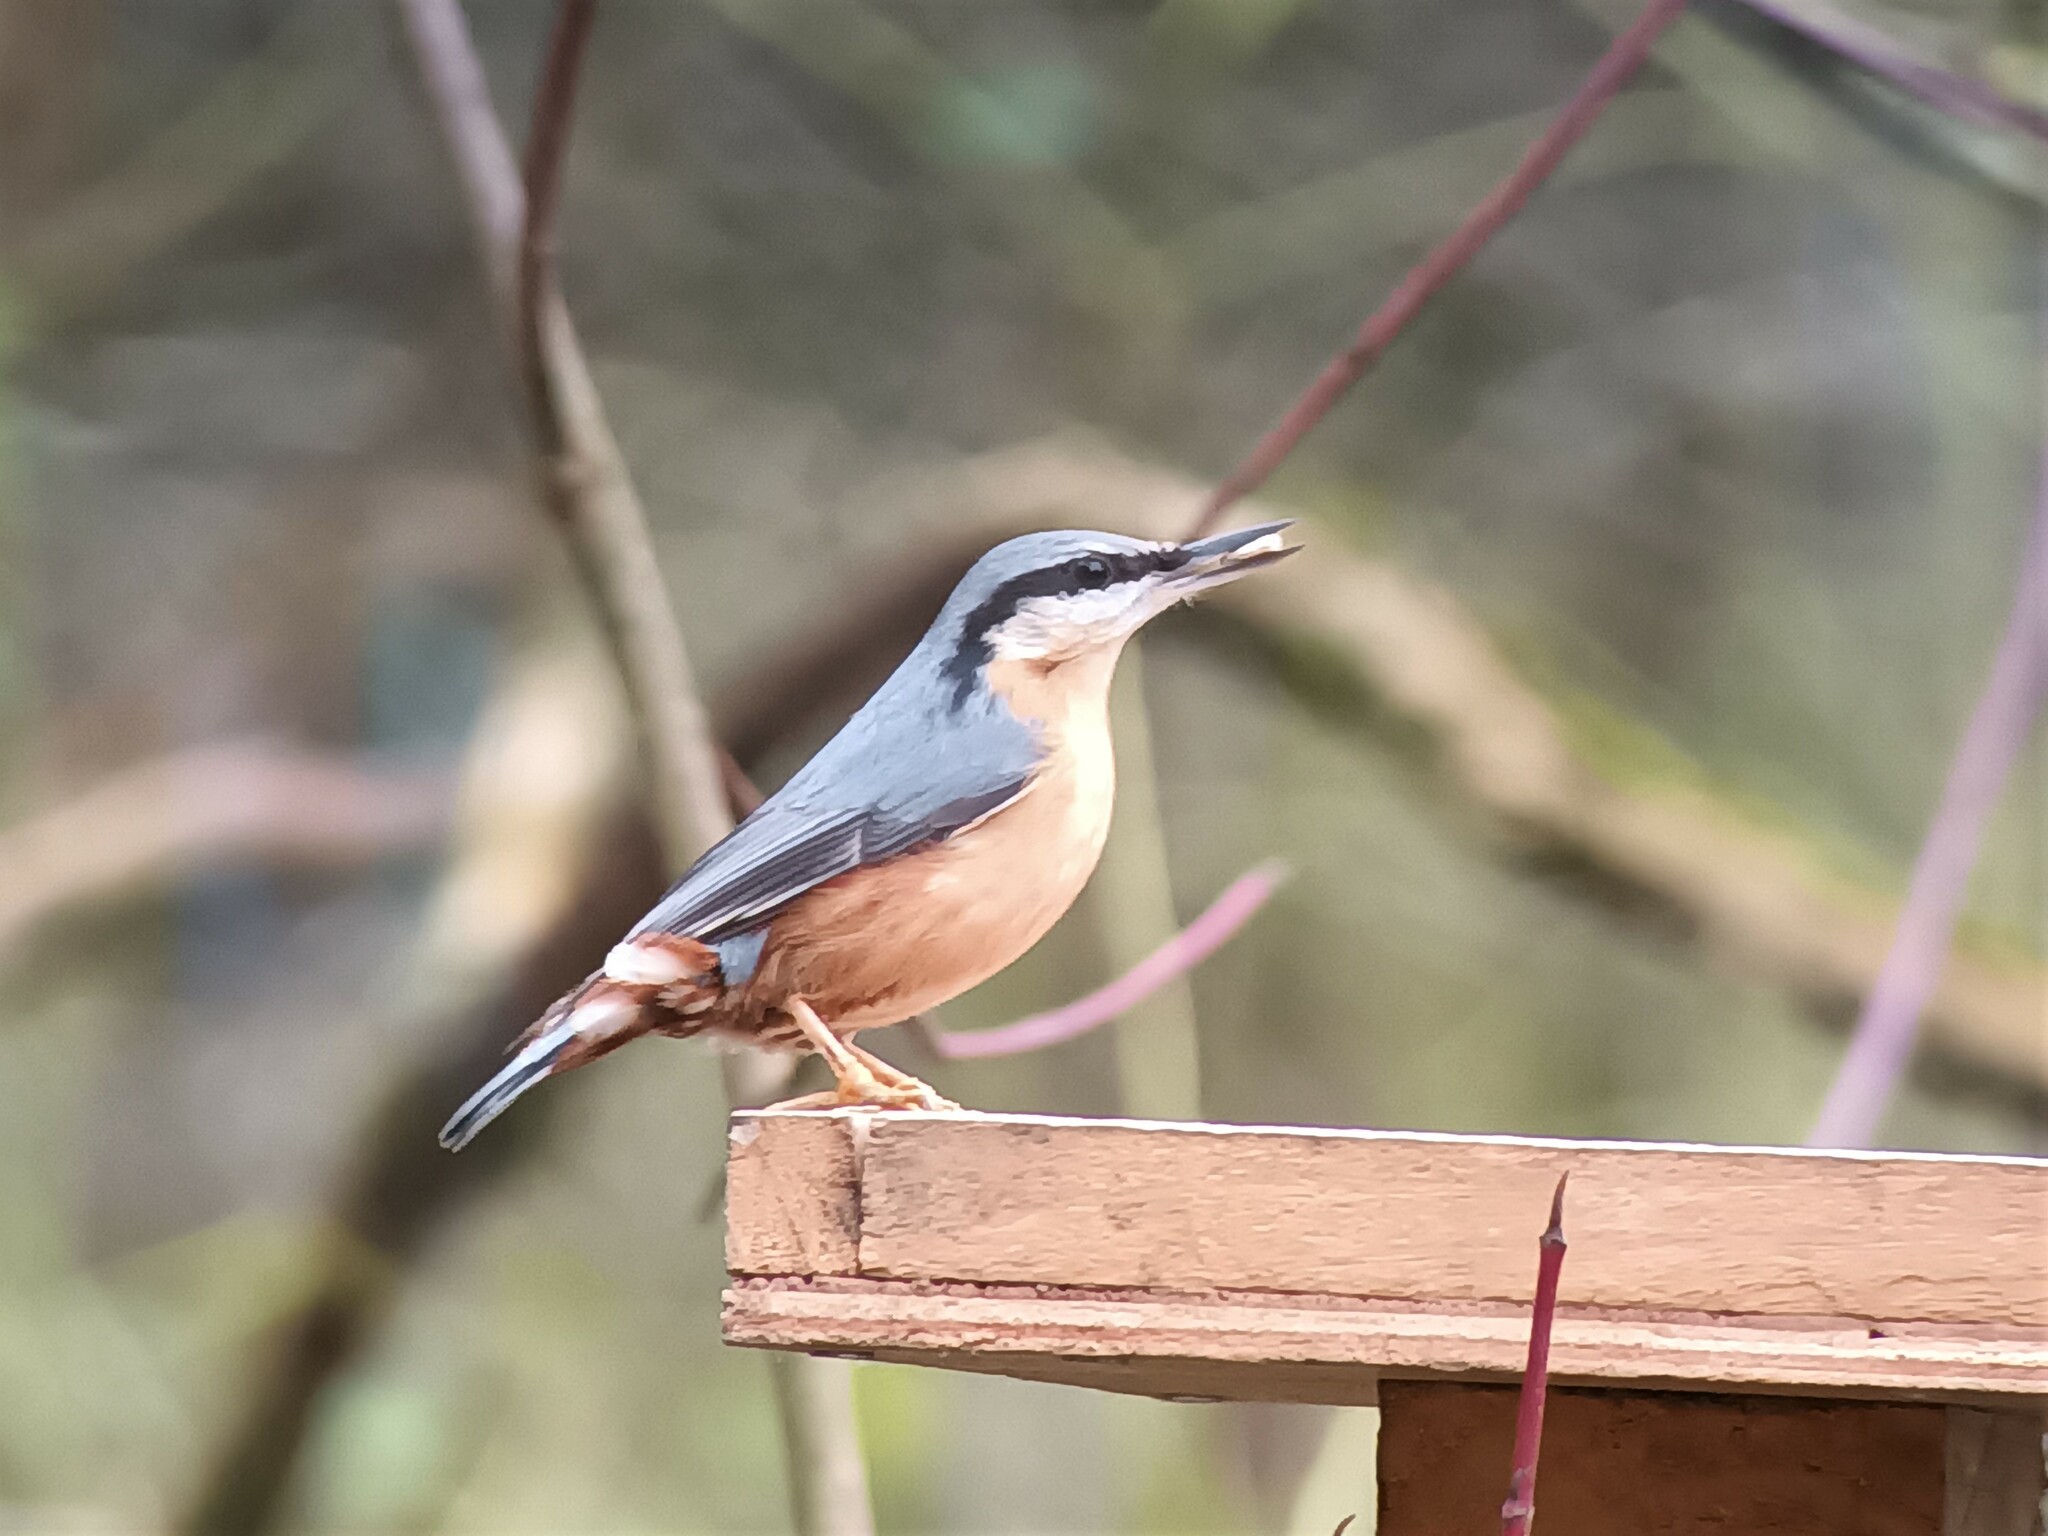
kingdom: Animalia
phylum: Chordata
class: Aves
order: Passeriformes
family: Sittidae
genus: Sitta
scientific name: Sitta europaea
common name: Eurasian nuthatch
